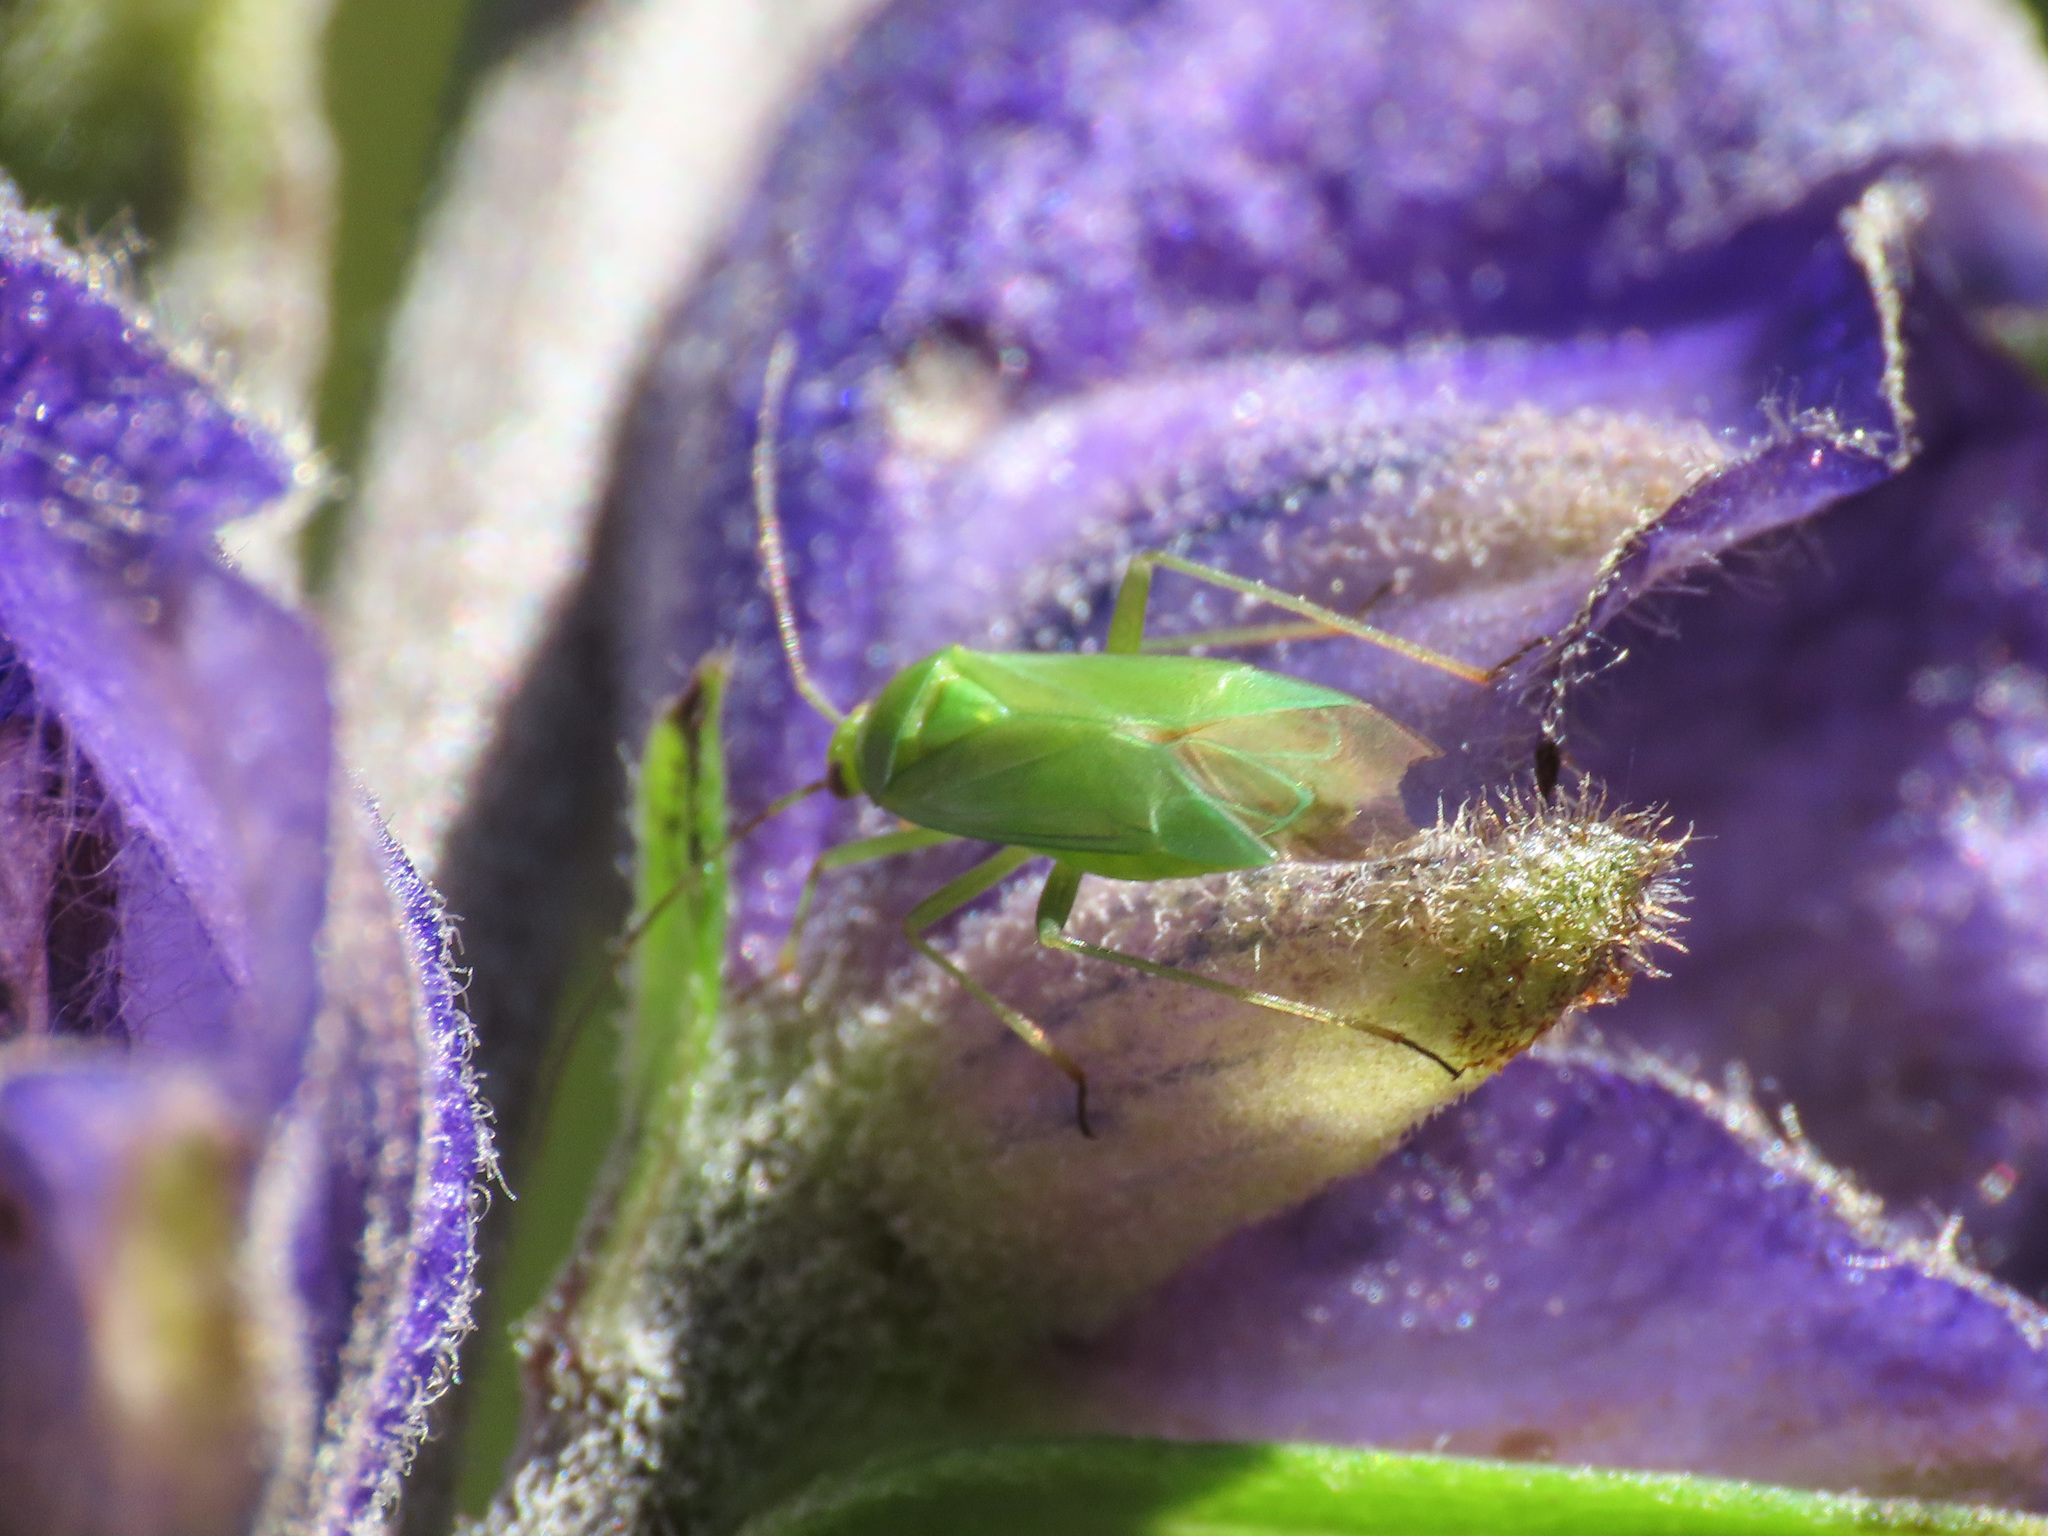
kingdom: Animalia
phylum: Arthropoda
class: Insecta
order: Hemiptera
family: Miridae
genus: Calocoris
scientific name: Calocoris alpestris
